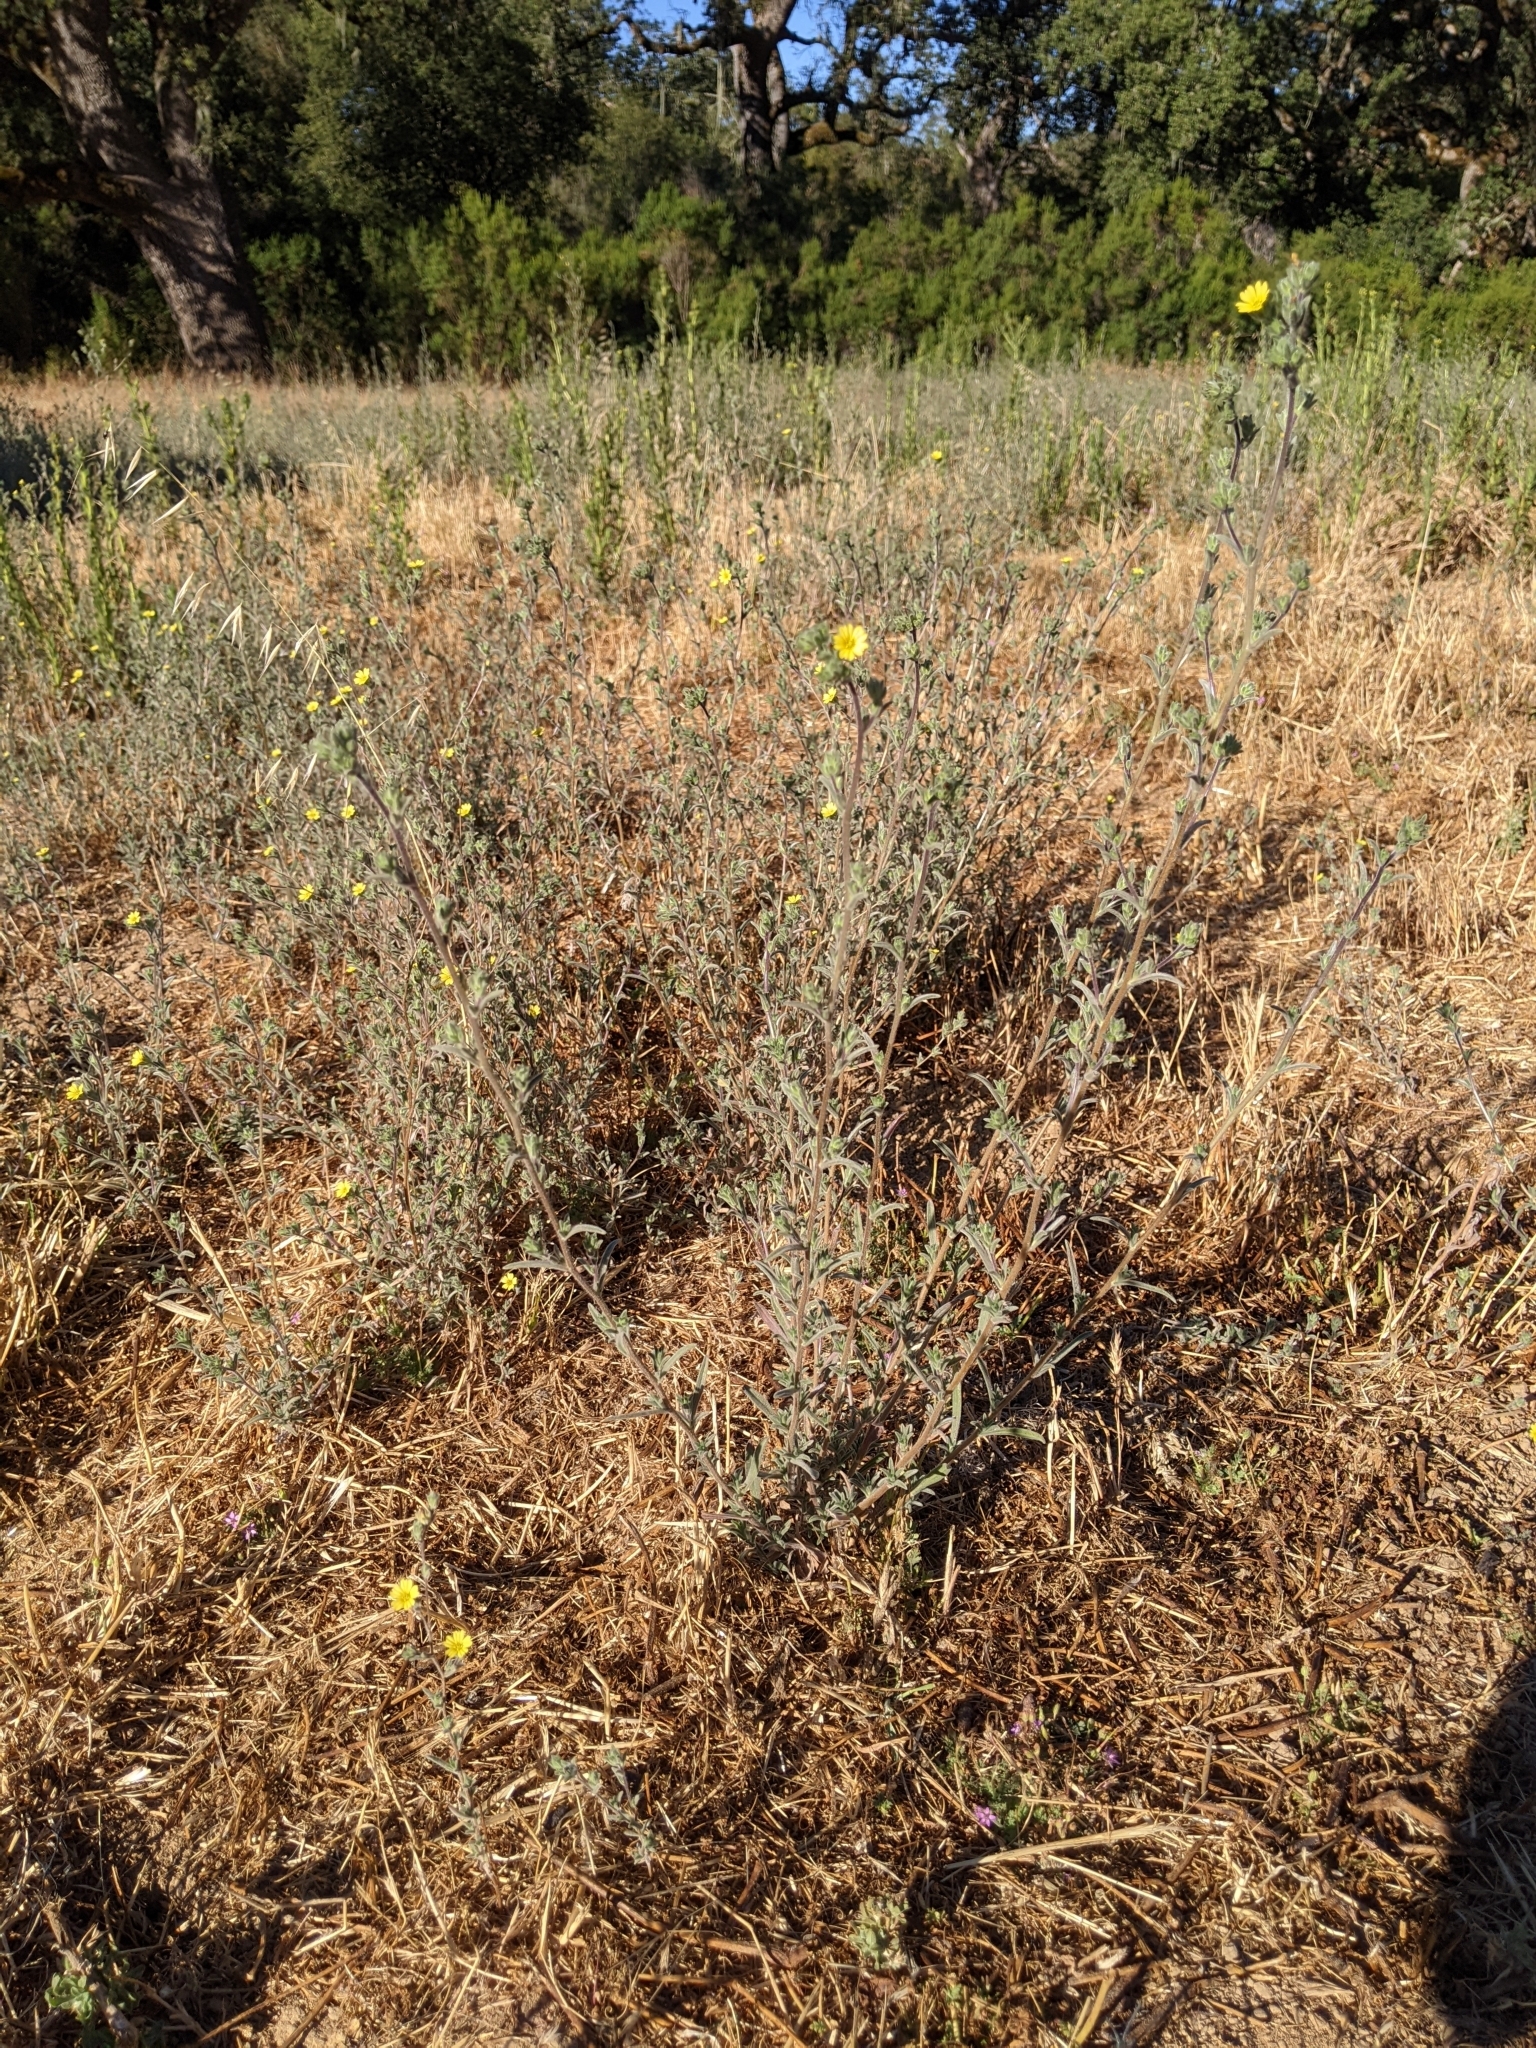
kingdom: Plantae
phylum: Tracheophyta
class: Magnoliopsida
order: Asterales
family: Asteraceae
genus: Lagophylla
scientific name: Lagophylla ramosissima
